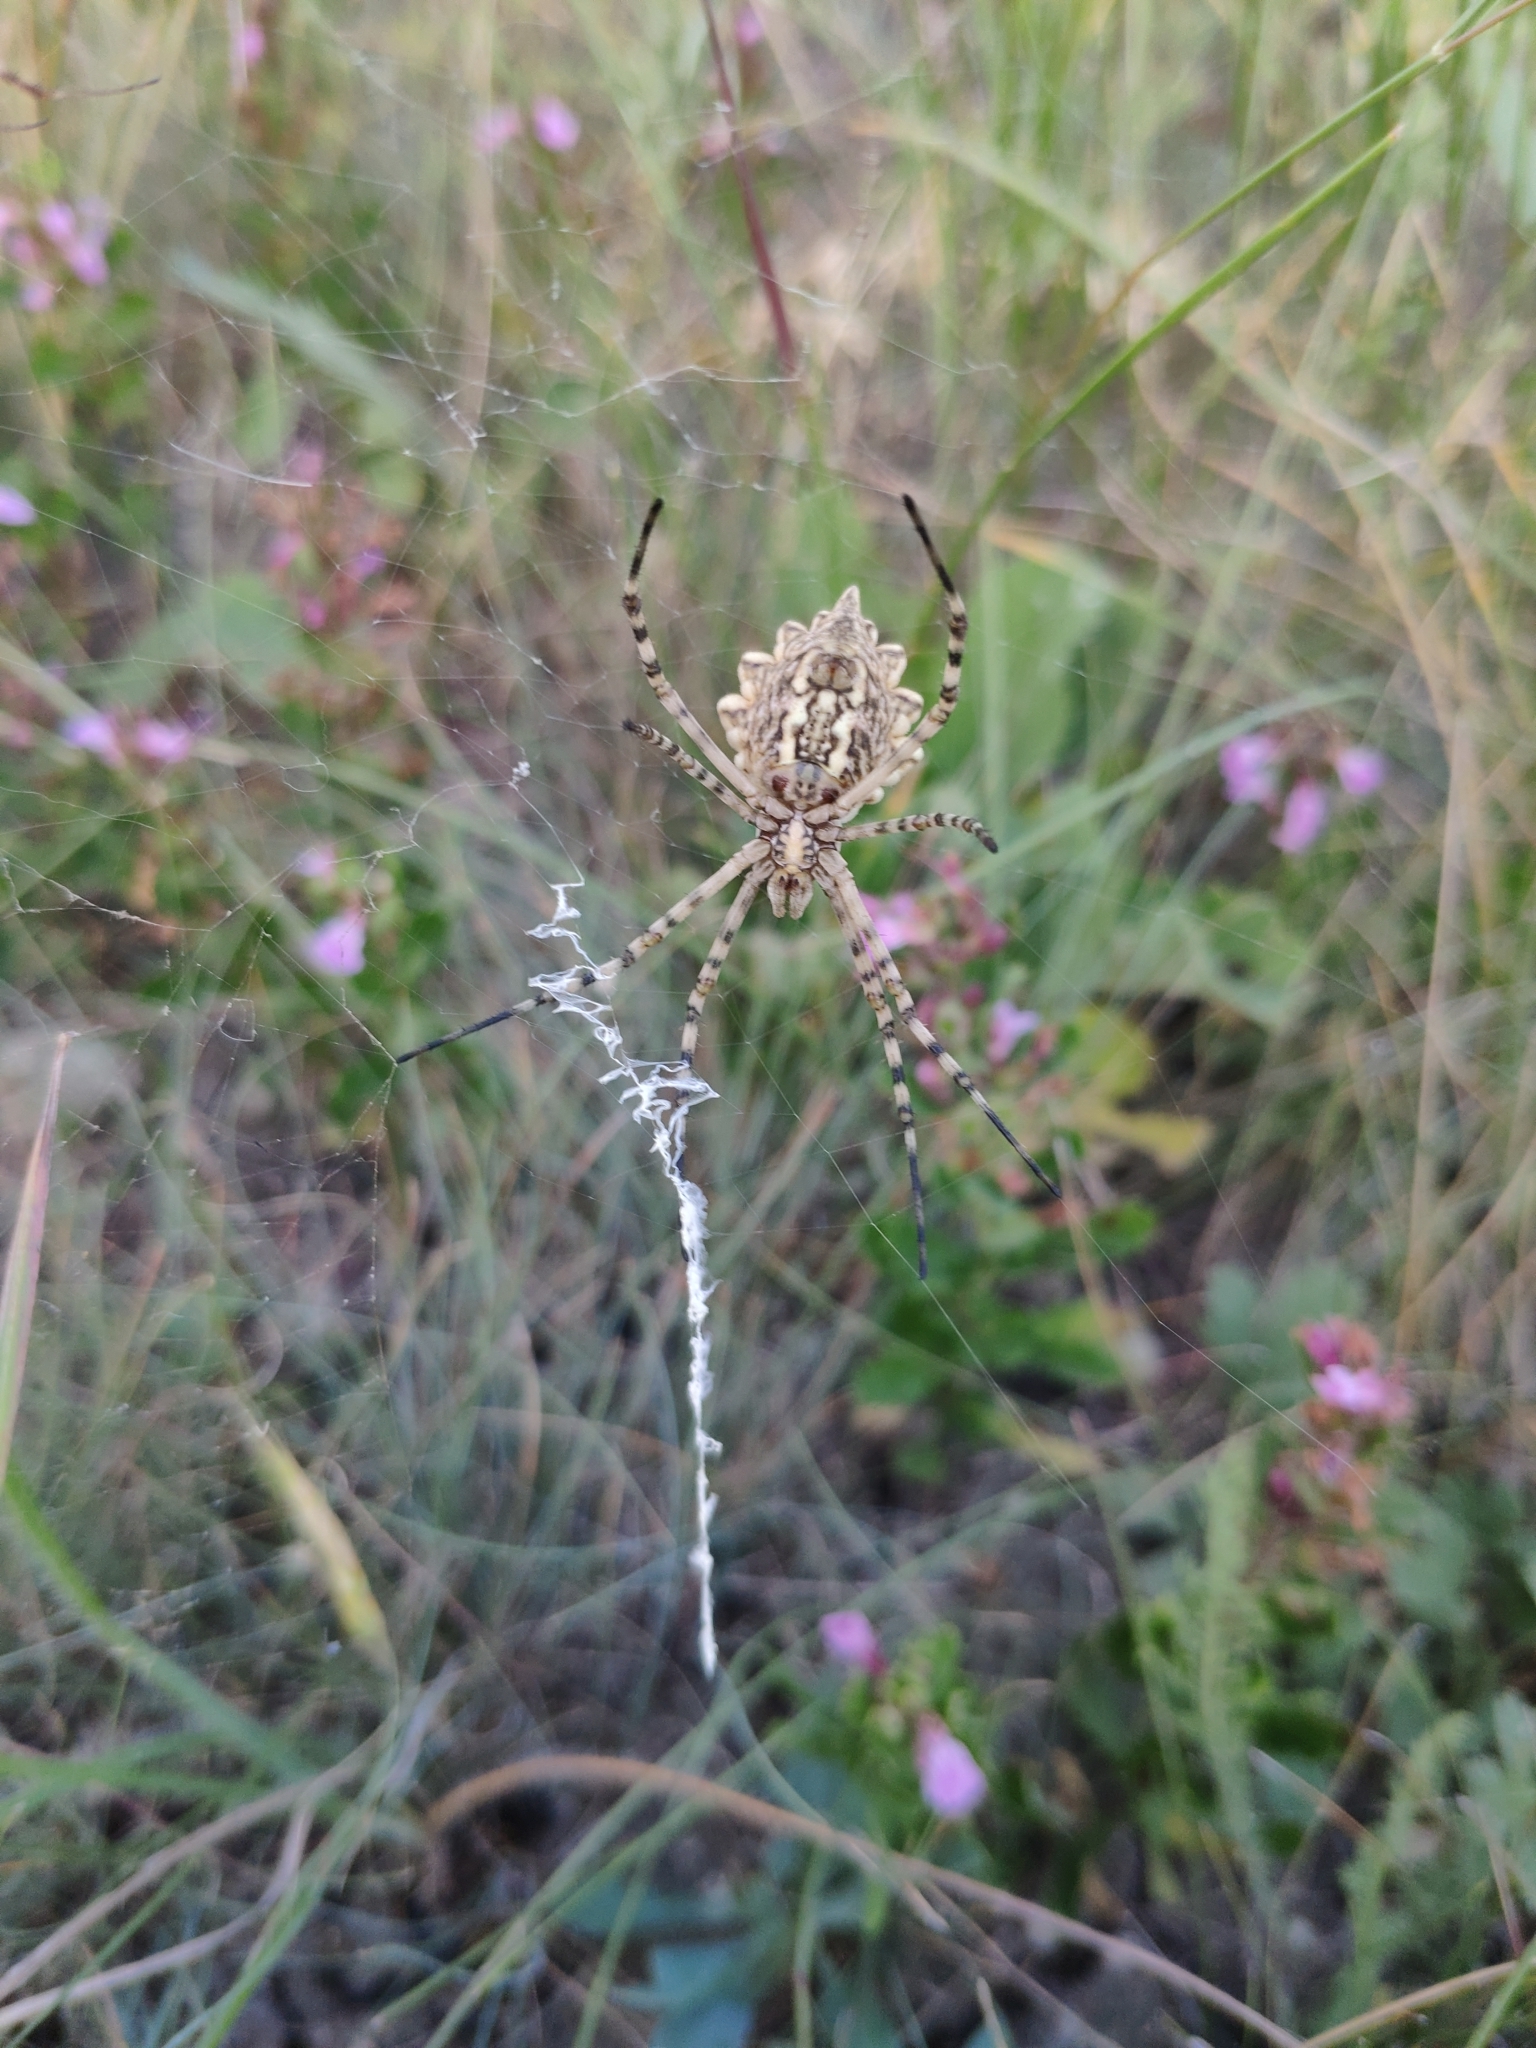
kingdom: Animalia
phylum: Arthropoda
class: Arachnida
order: Araneae
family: Araneidae
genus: Argiope
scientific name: Argiope lobata
